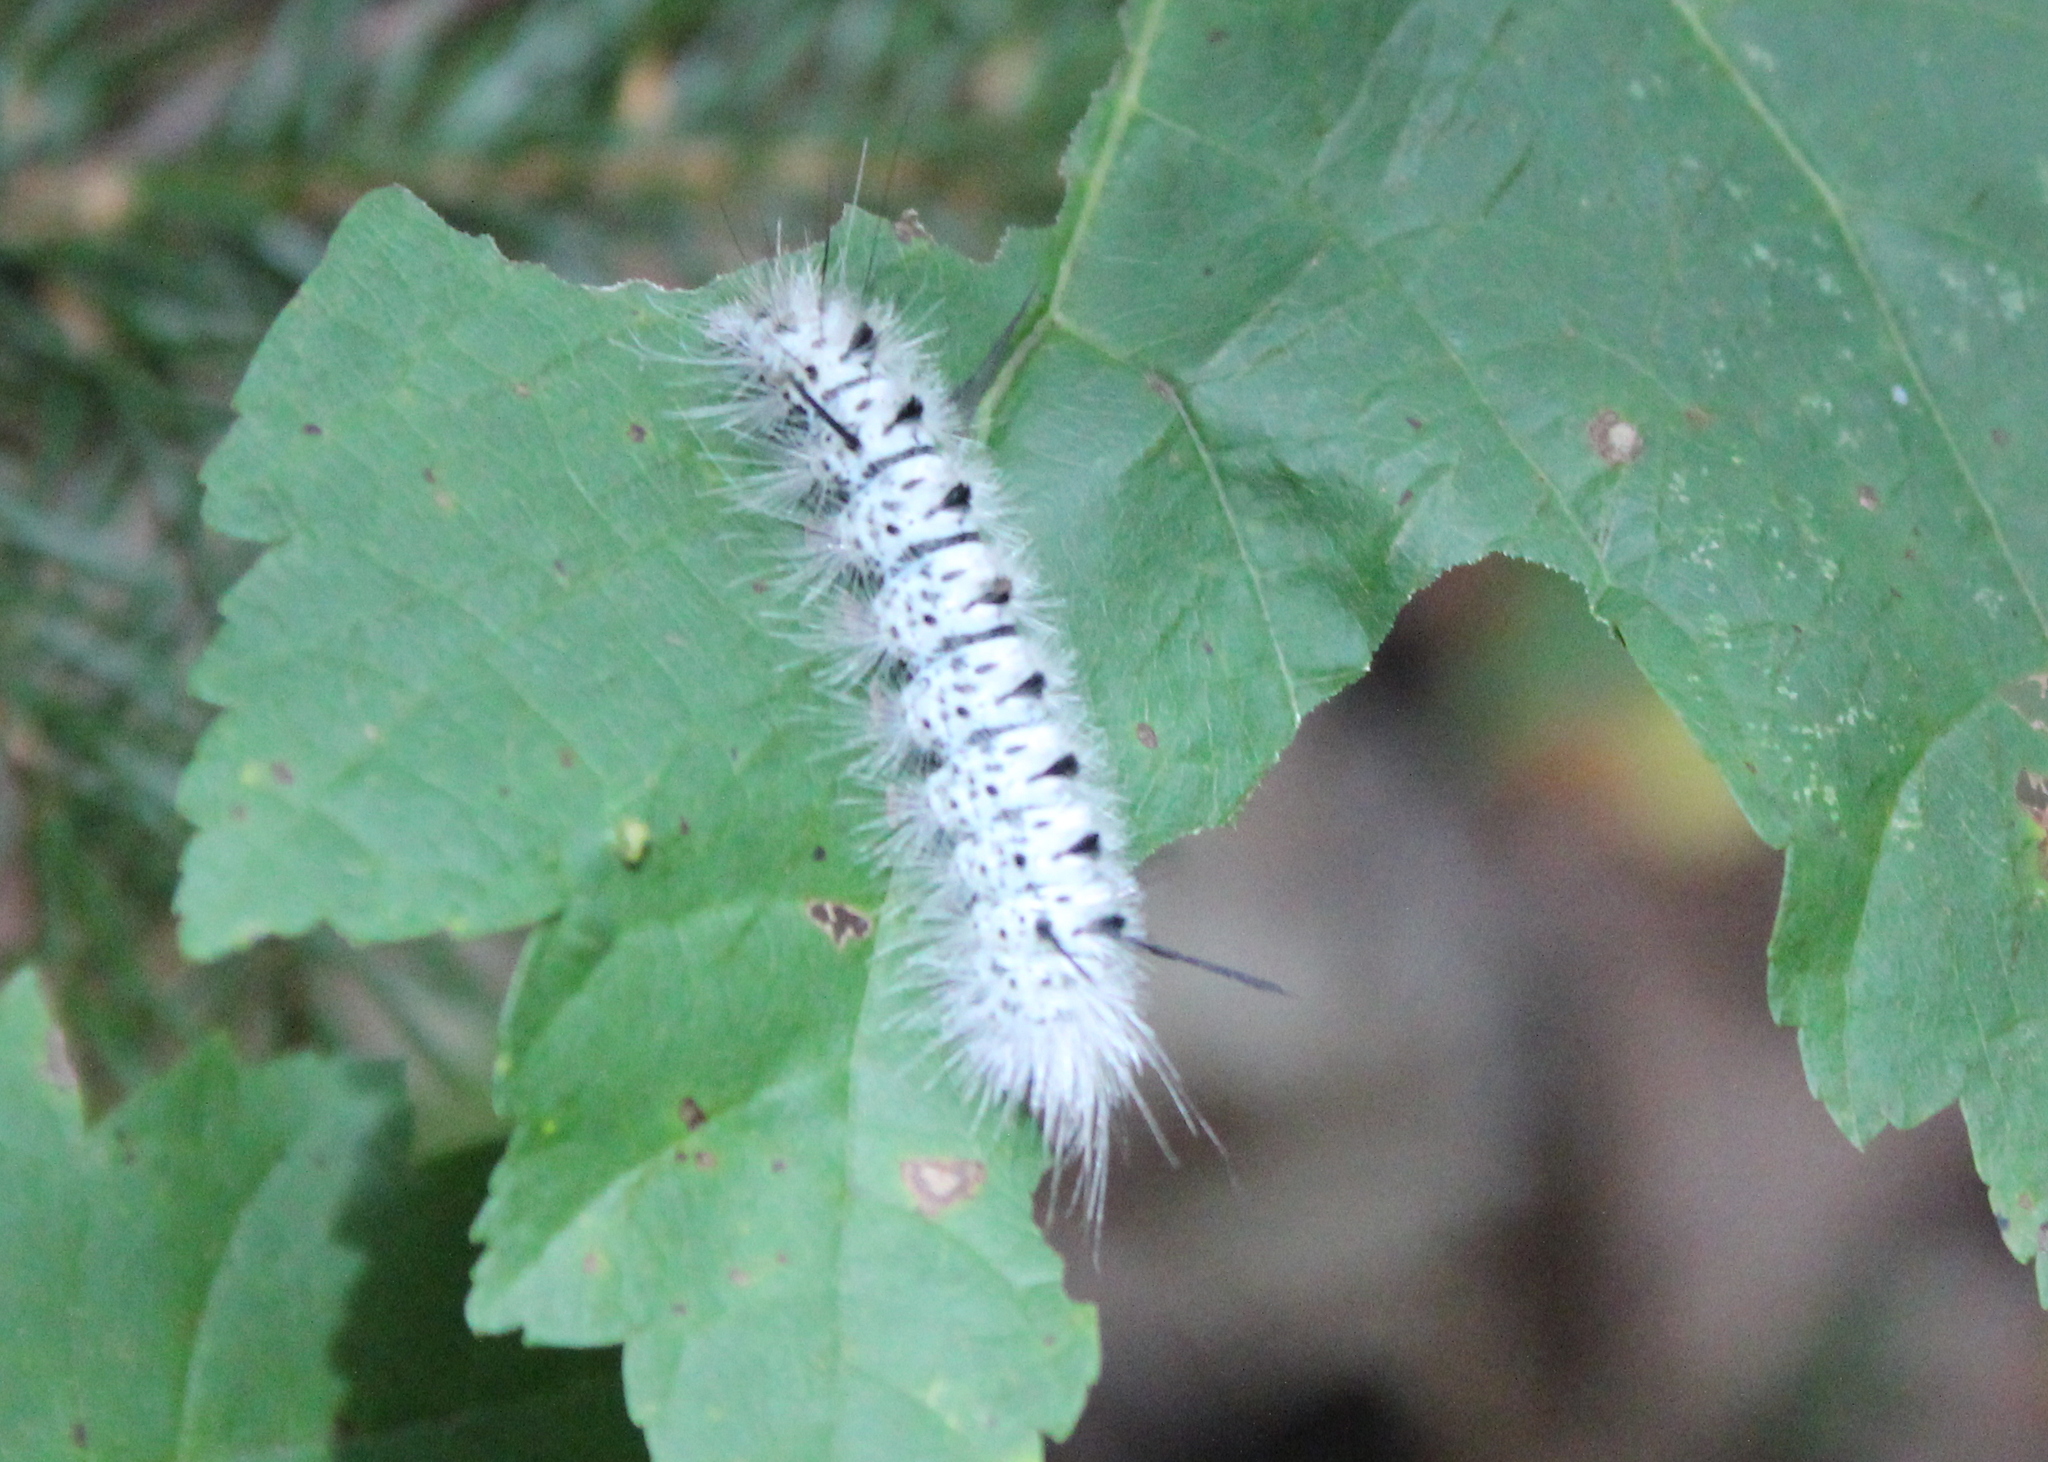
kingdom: Animalia
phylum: Arthropoda
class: Insecta
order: Lepidoptera
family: Erebidae
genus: Lophocampa
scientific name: Lophocampa caryae
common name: Hickory tussock moth
